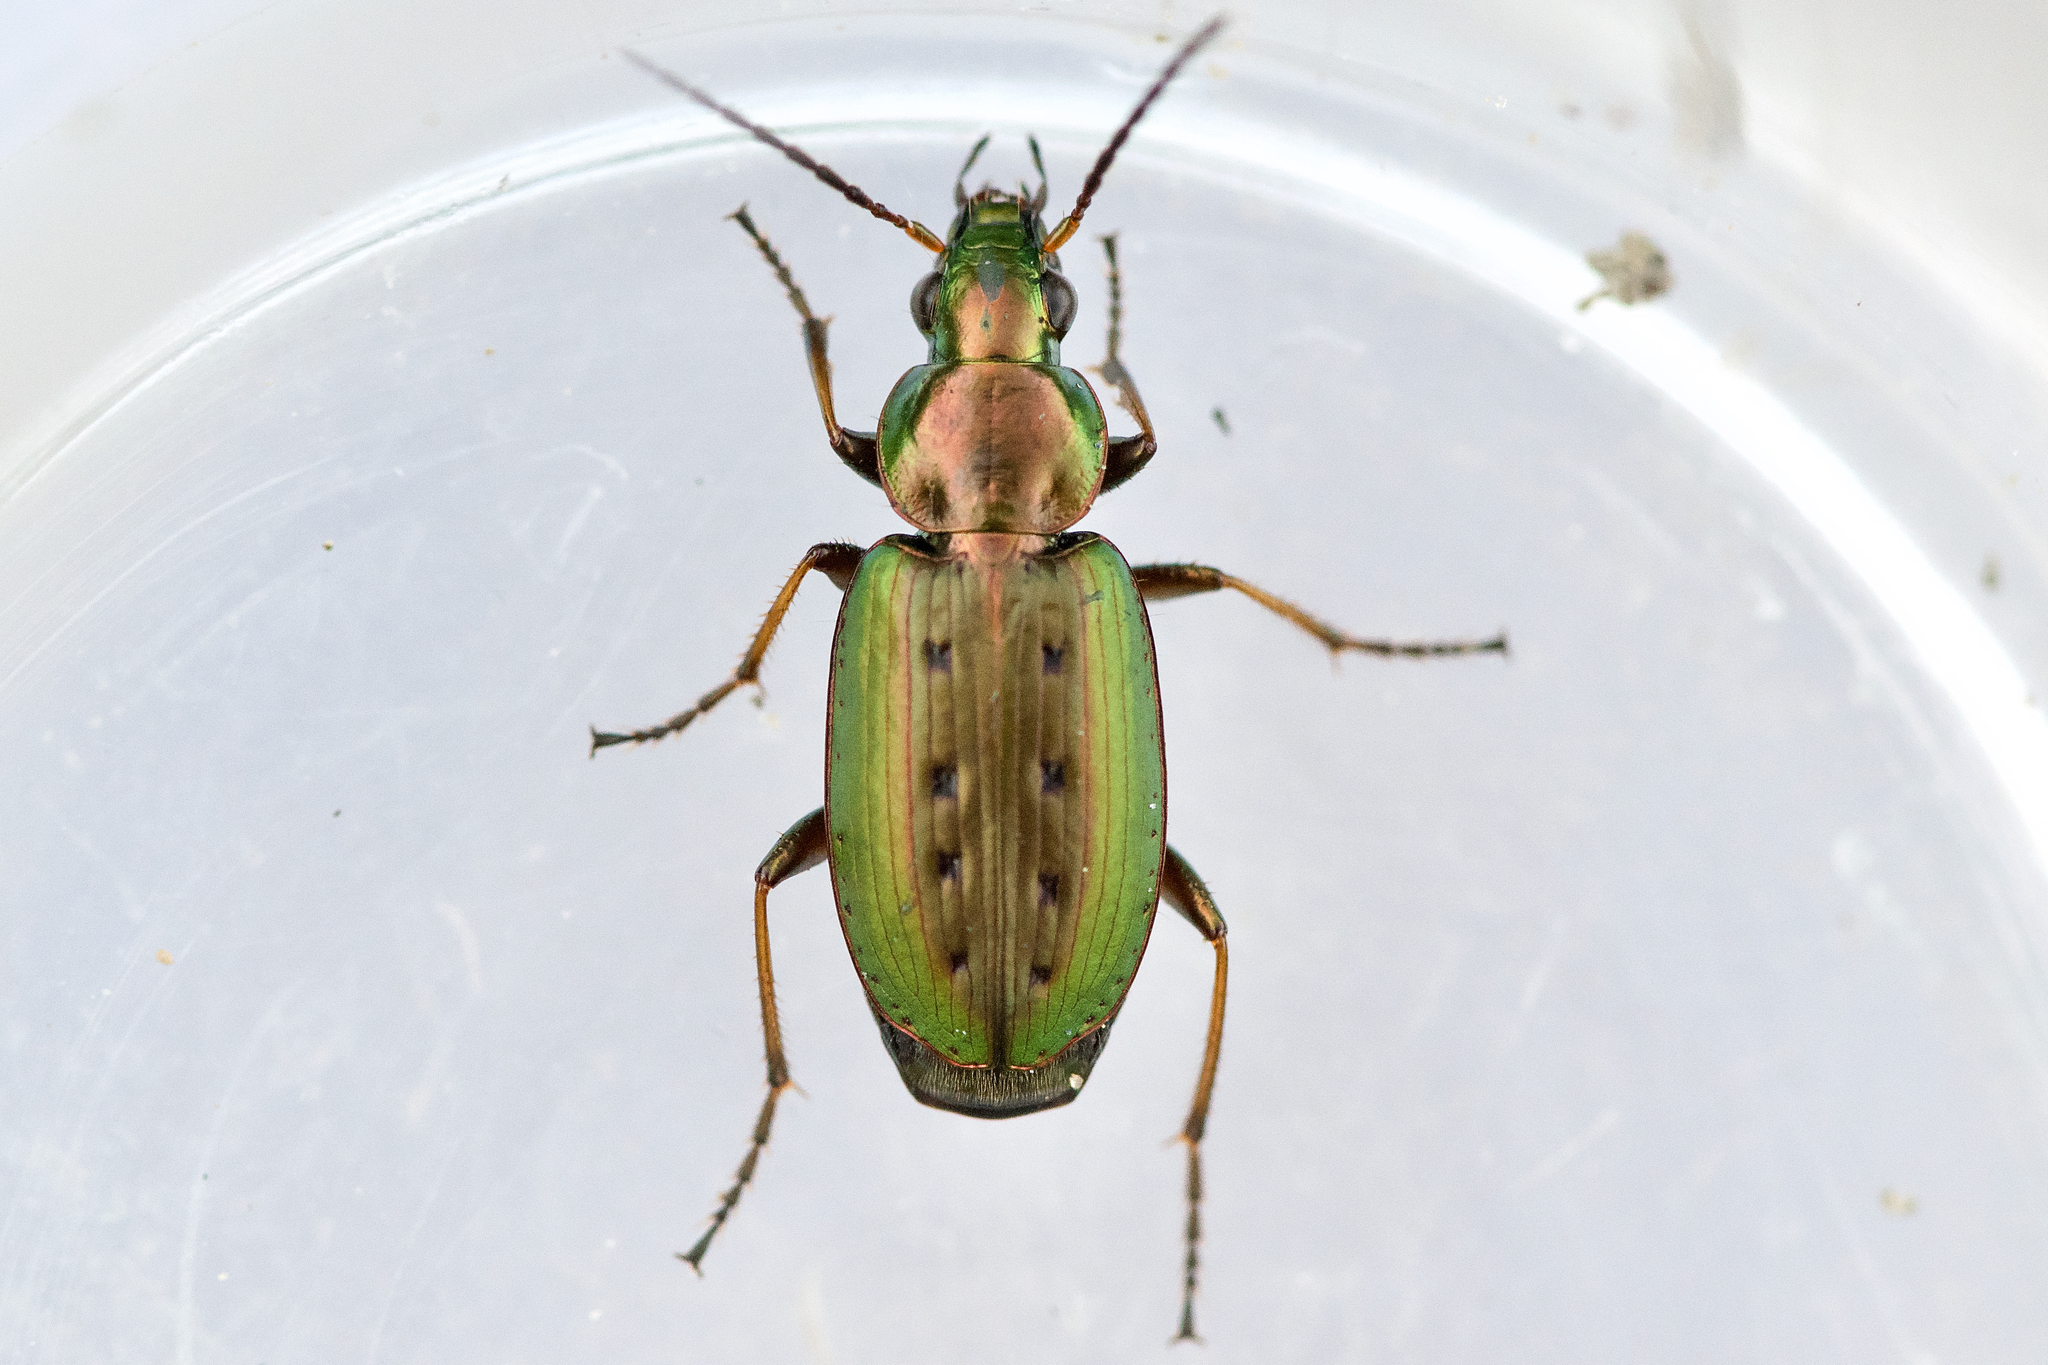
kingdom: Animalia
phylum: Arthropoda
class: Insecta
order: Coleoptera
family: Carabidae
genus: Agonum
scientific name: Agonum octopunctatum
